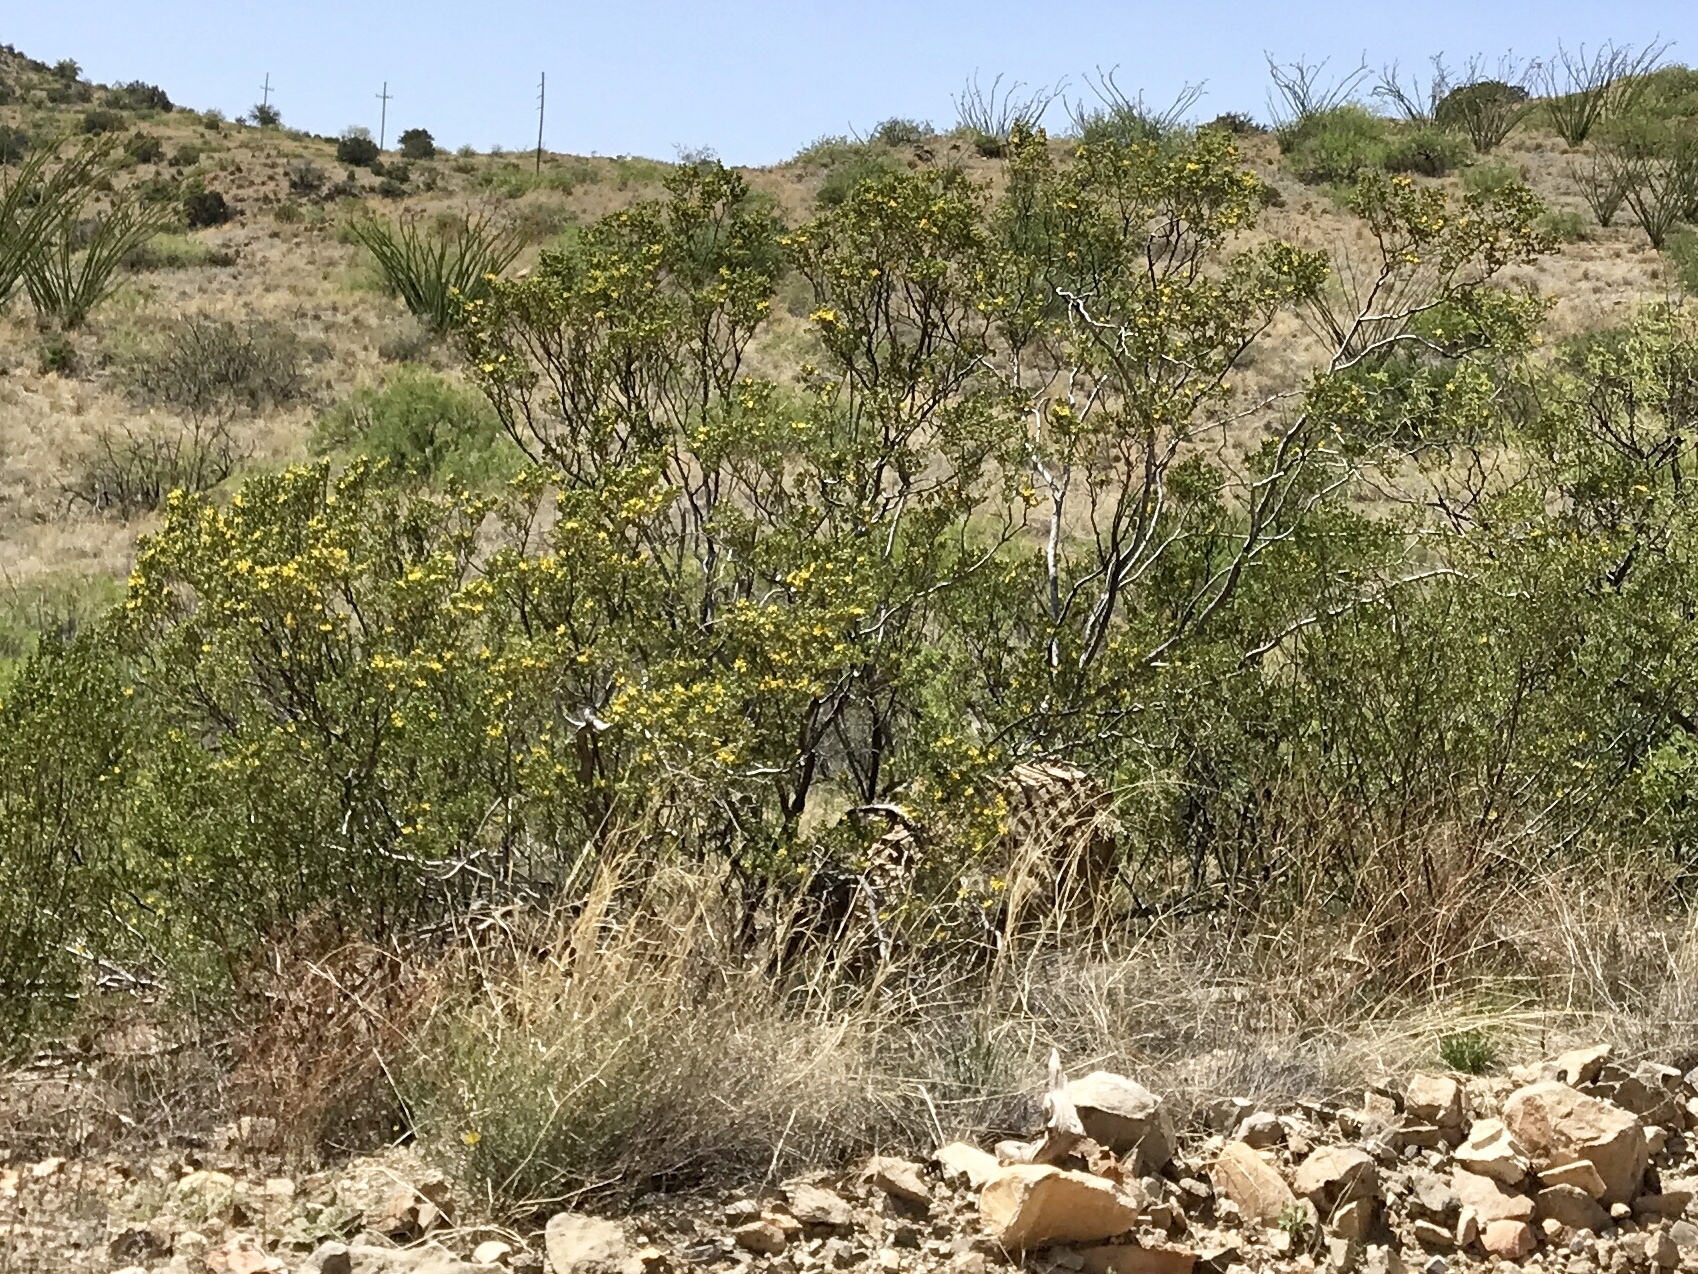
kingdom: Plantae
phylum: Tracheophyta
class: Magnoliopsida
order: Zygophyllales
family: Zygophyllaceae
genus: Larrea
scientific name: Larrea tridentata
